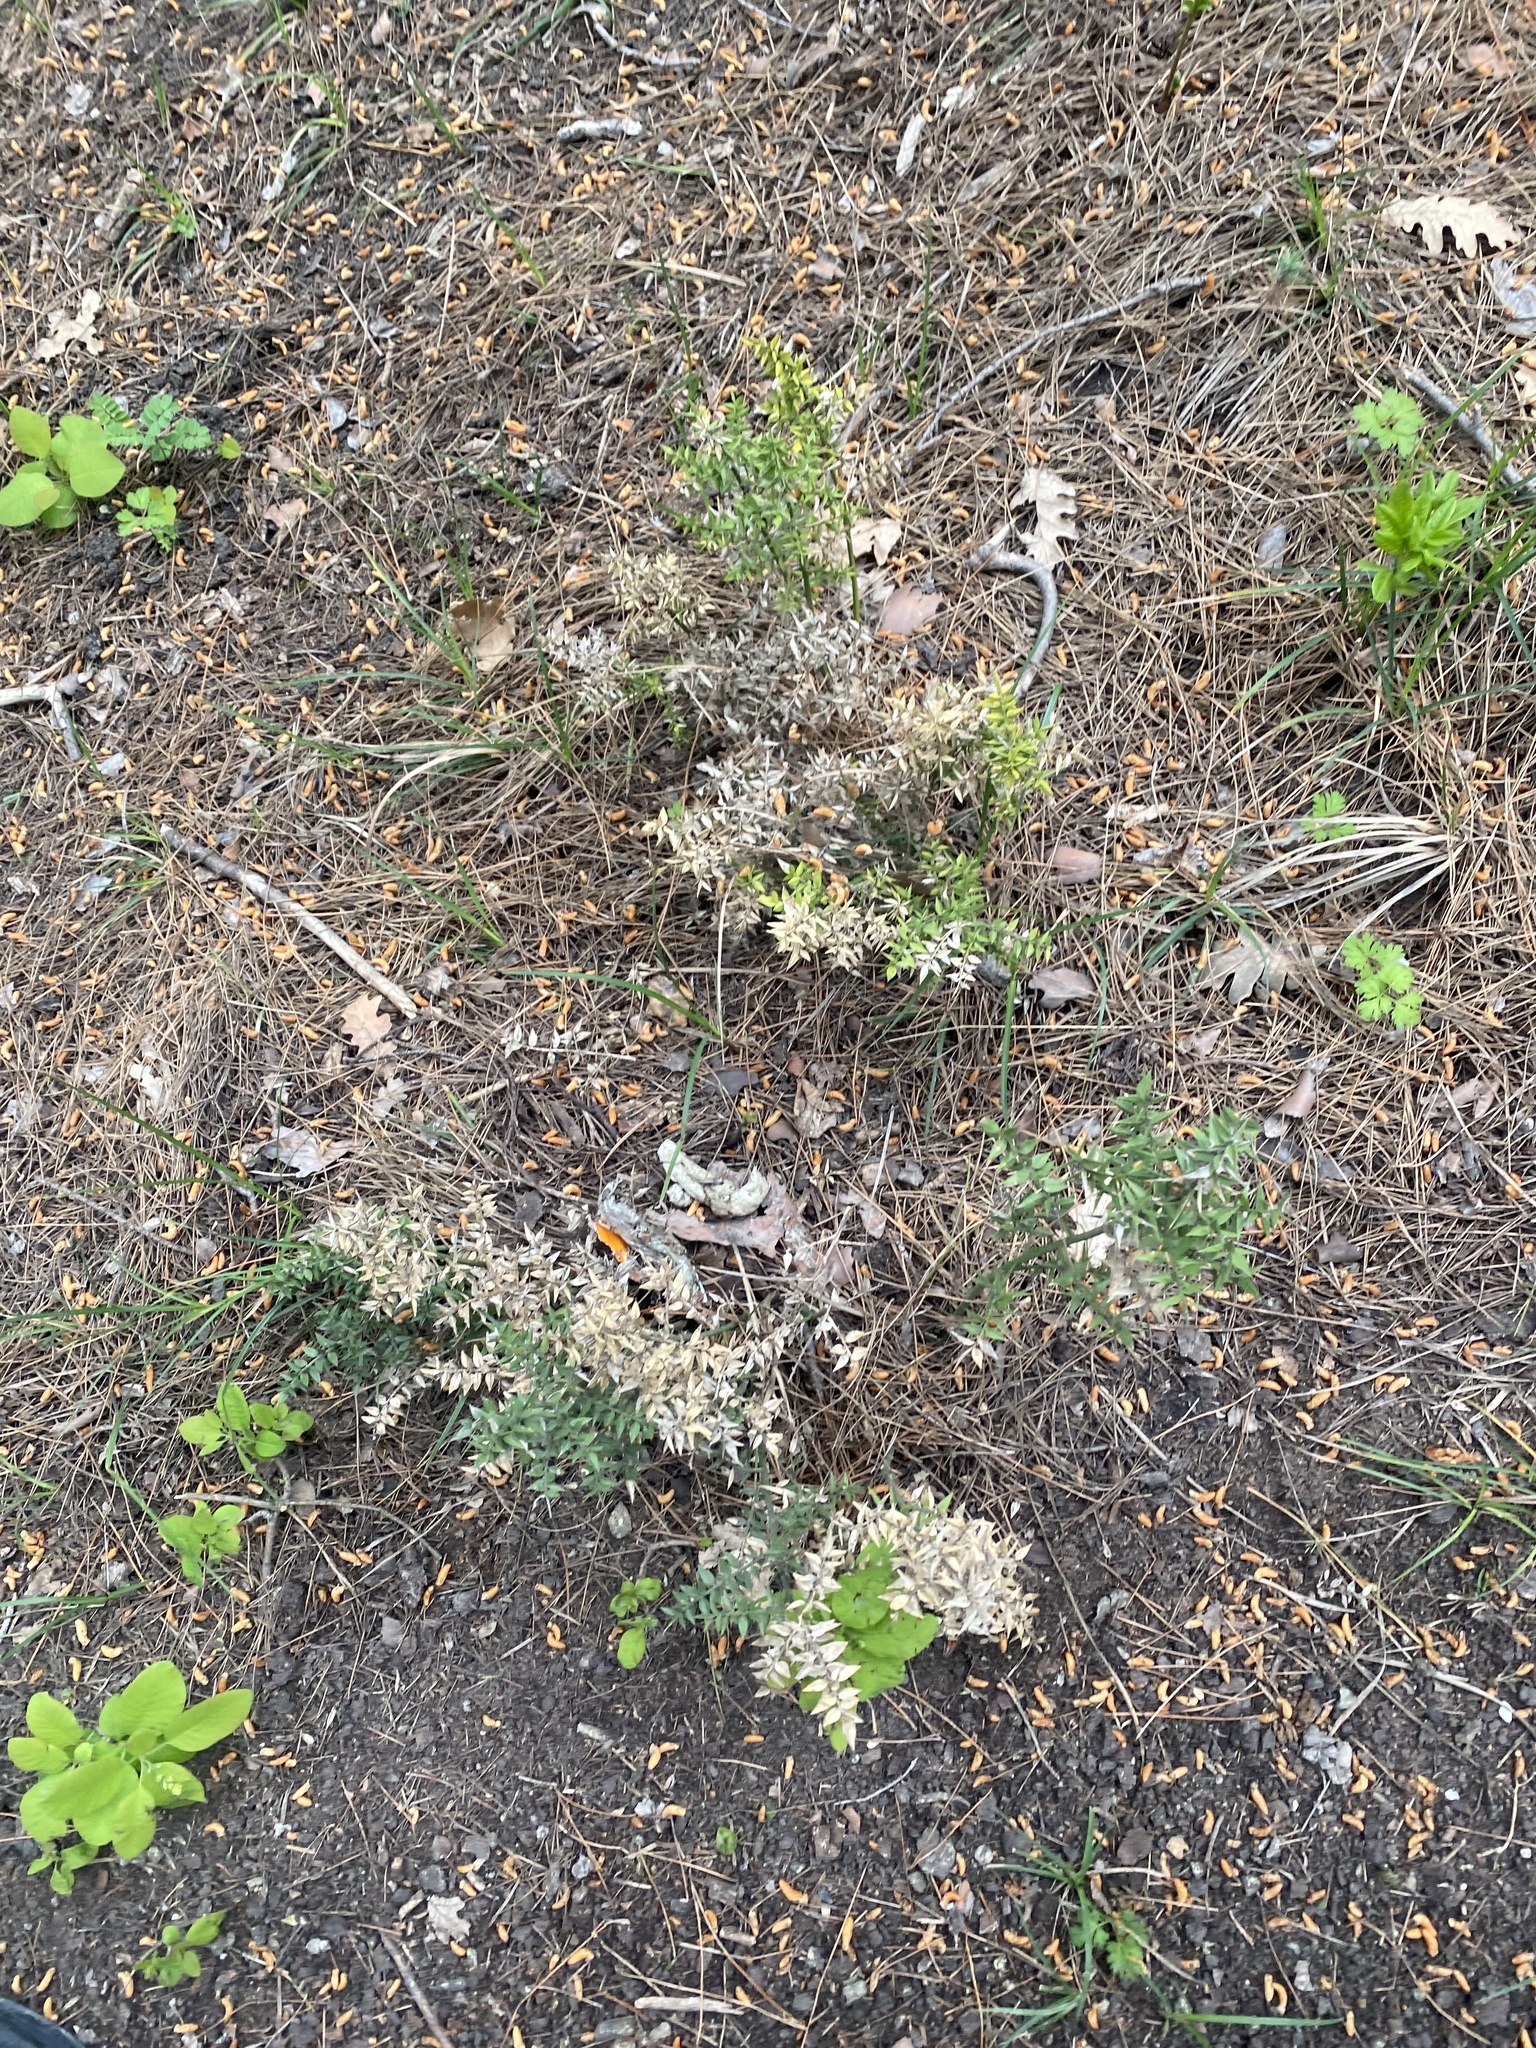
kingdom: Plantae
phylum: Tracheophyta
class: Liliopsida
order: Asparagales
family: Asparagaceae
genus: Ruscus
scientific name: Ruscus aculeatus
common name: Butcher's-broom
